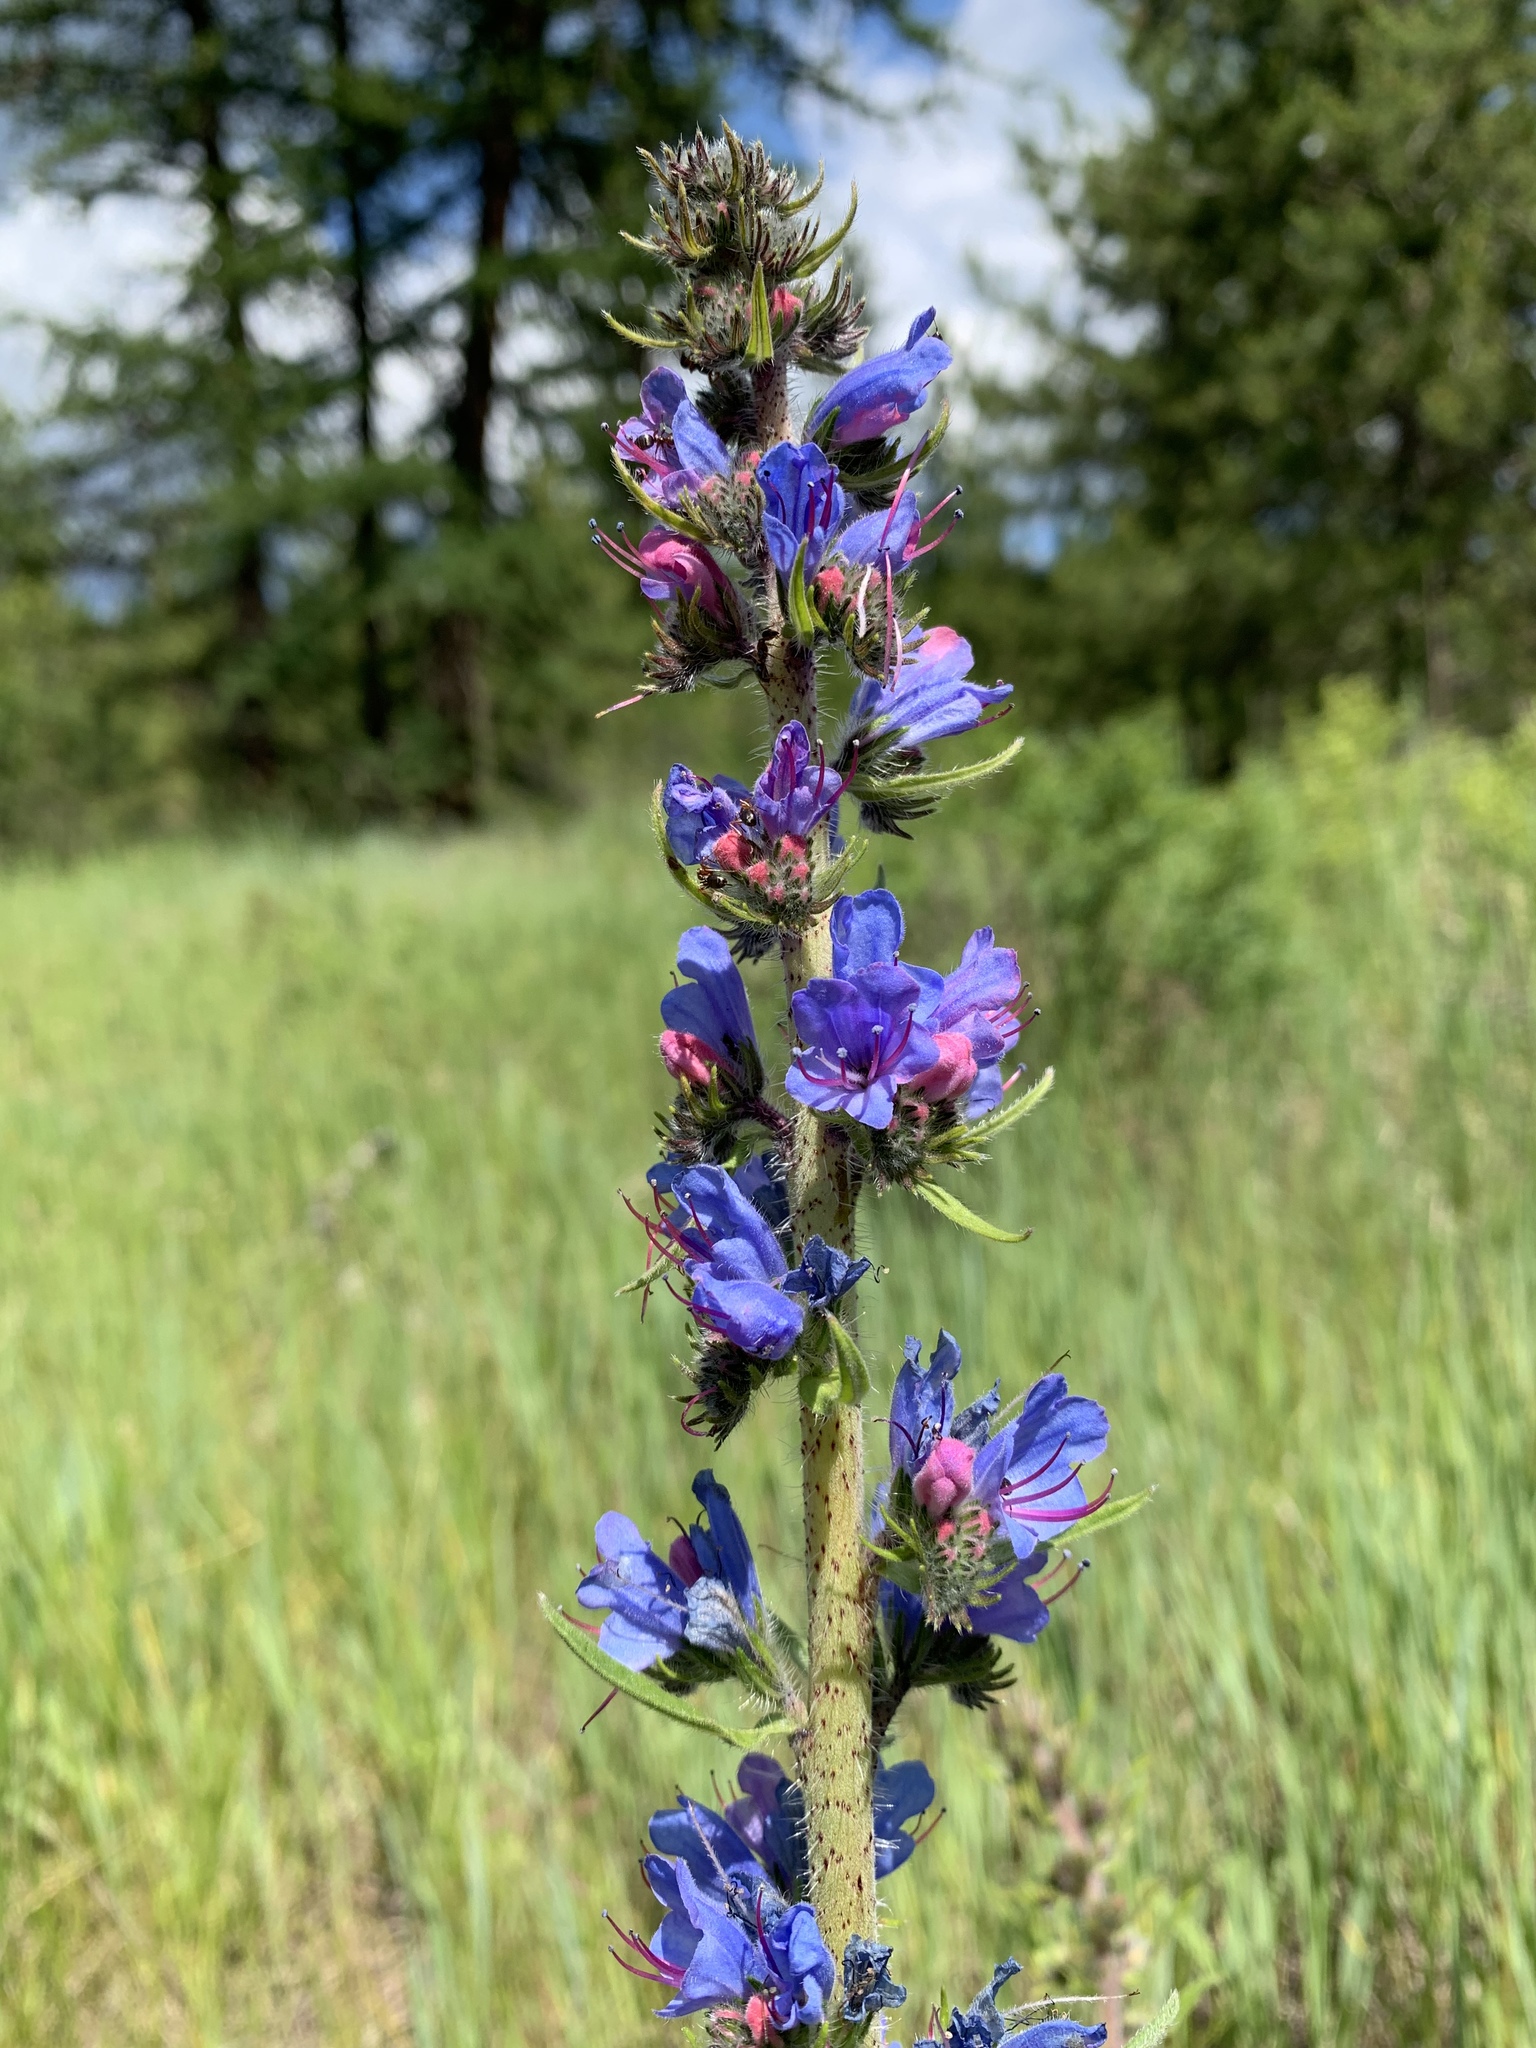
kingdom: Plantae
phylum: Tracheophyta
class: Magnoliopsida
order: Boraginales
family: Boraginaceae
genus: Echium
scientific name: Echium vulgare
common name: Common viper's bugloss
